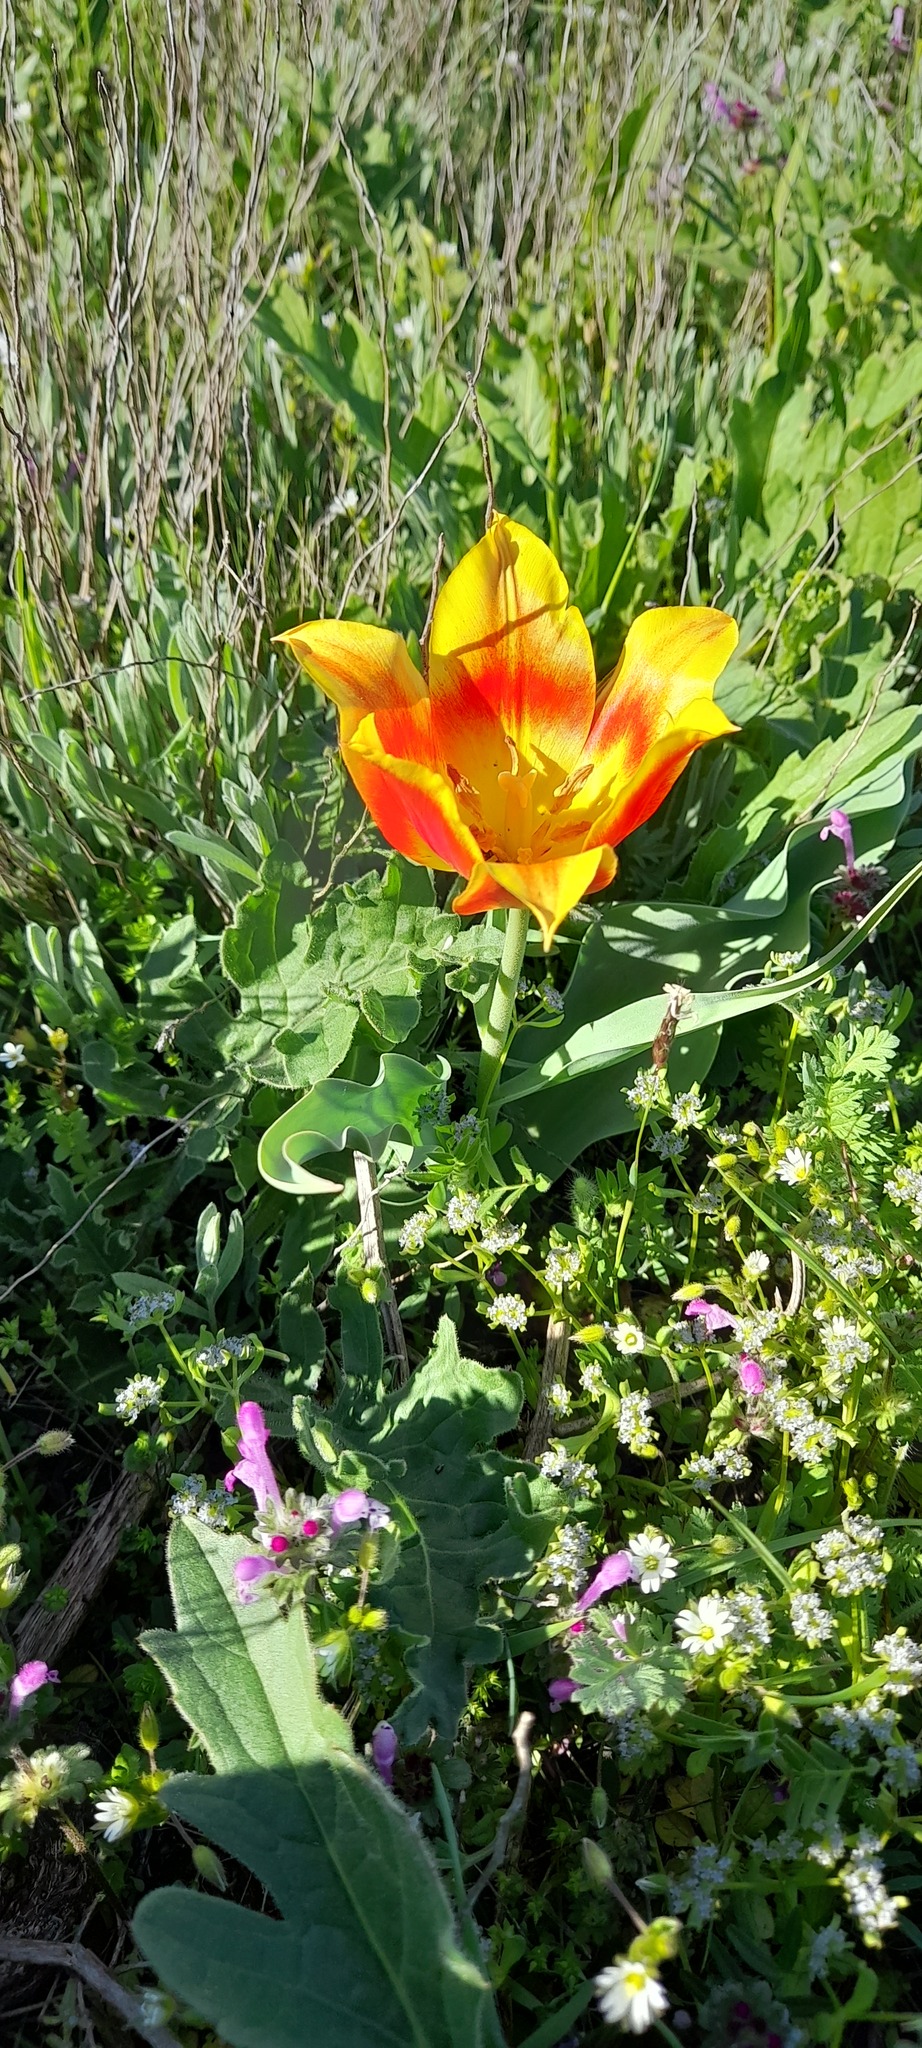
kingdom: Plantae
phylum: Tracheophyta
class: Liliopsida
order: Liliales
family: Liliaceae
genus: Tulipa
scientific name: Tulipa suaveolens
